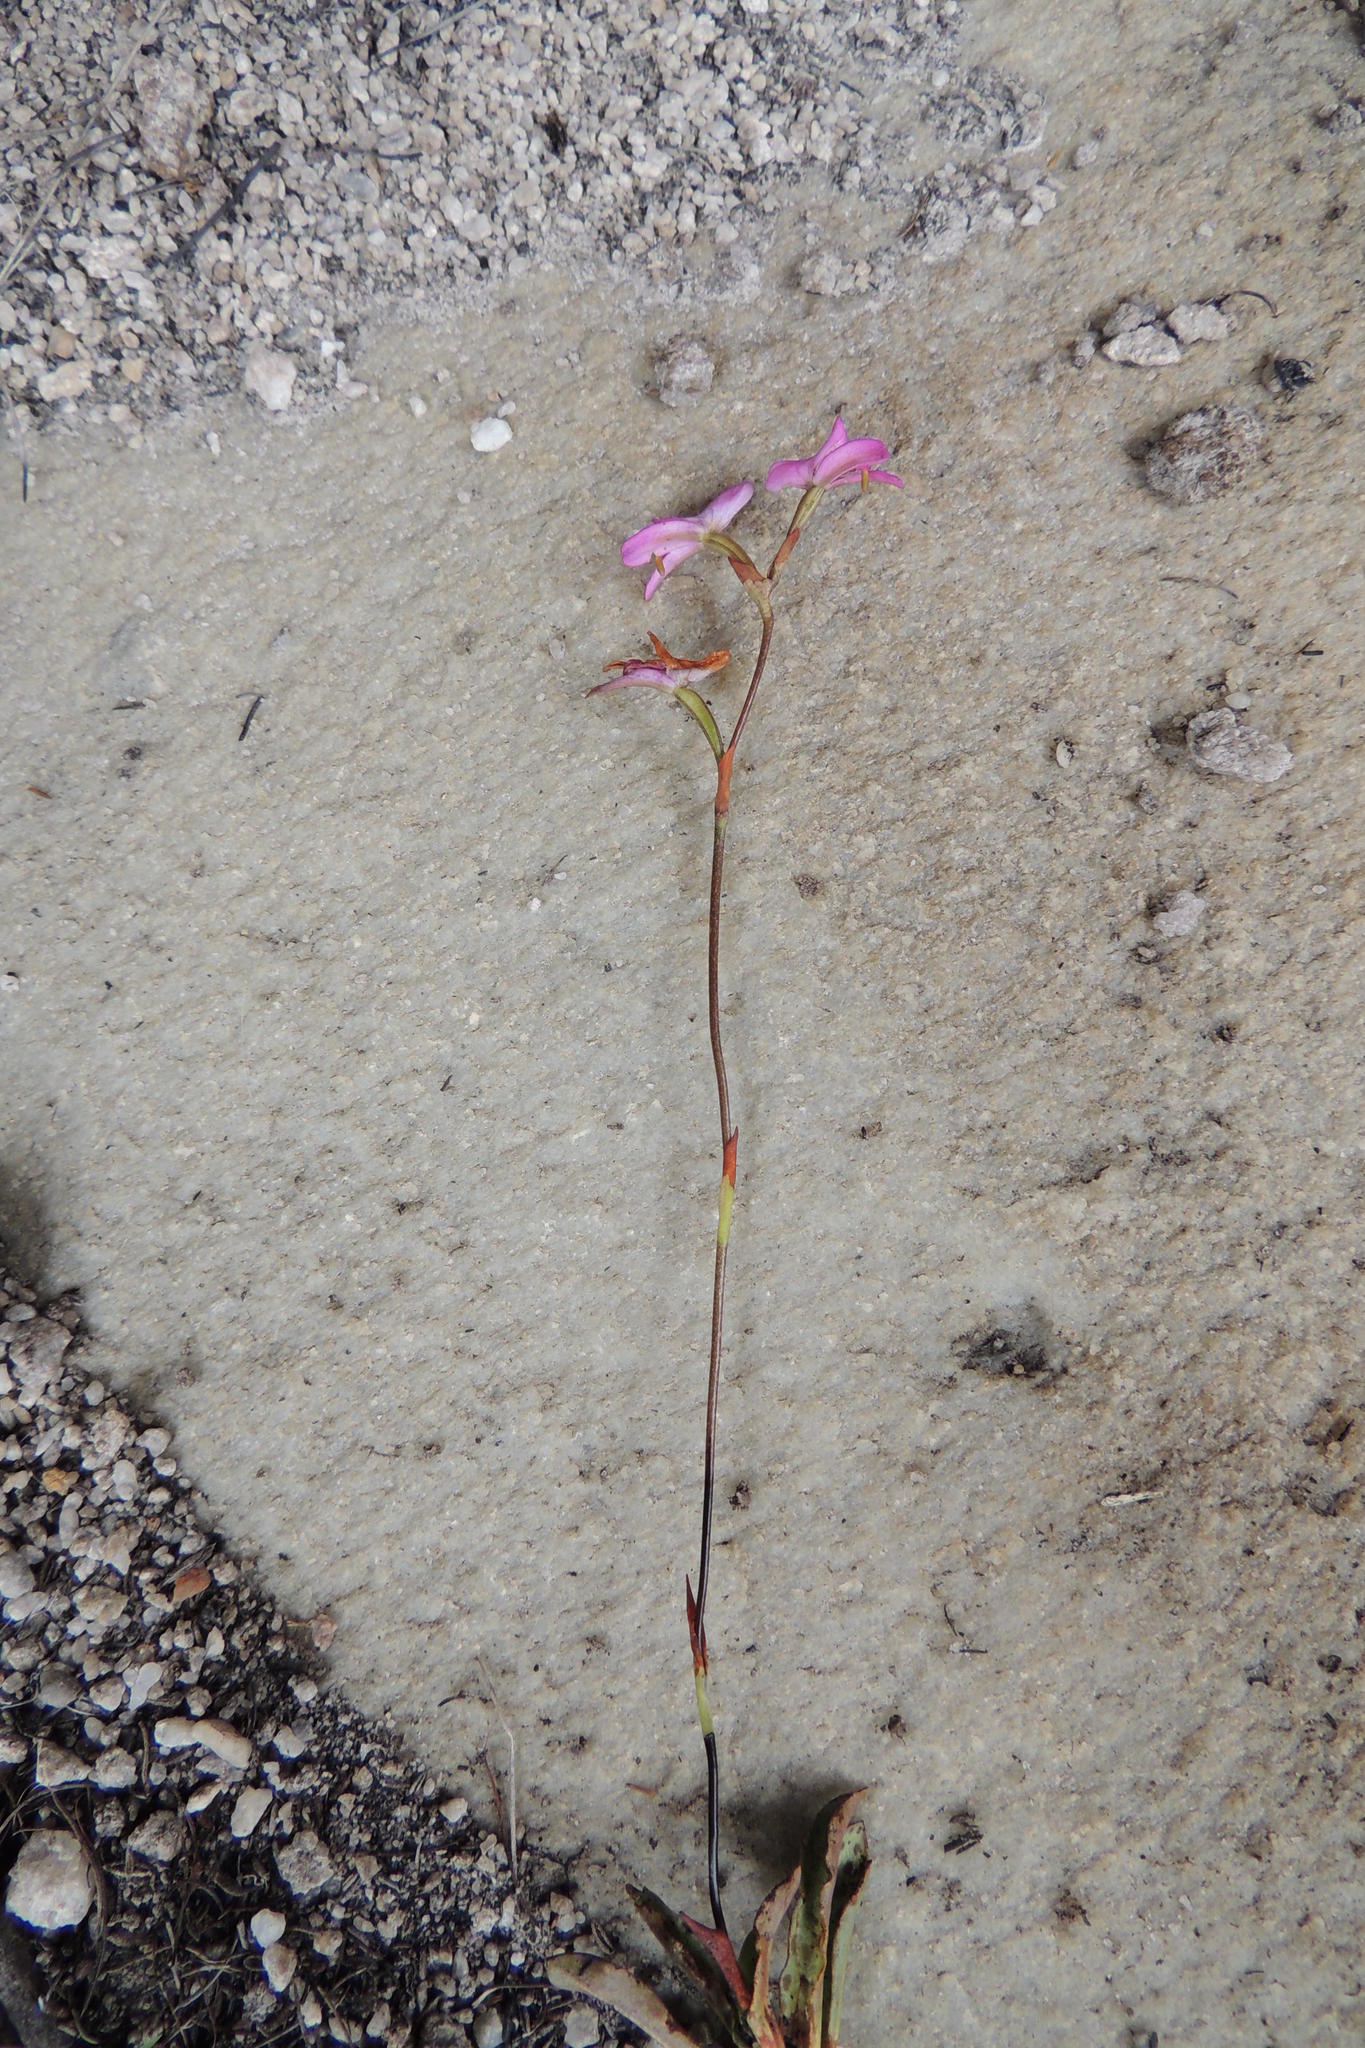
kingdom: Plantae
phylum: Tracheophyta
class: Liliopsida
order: Asparagales
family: Orchidaceae
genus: Disa
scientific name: Disa inflexa
